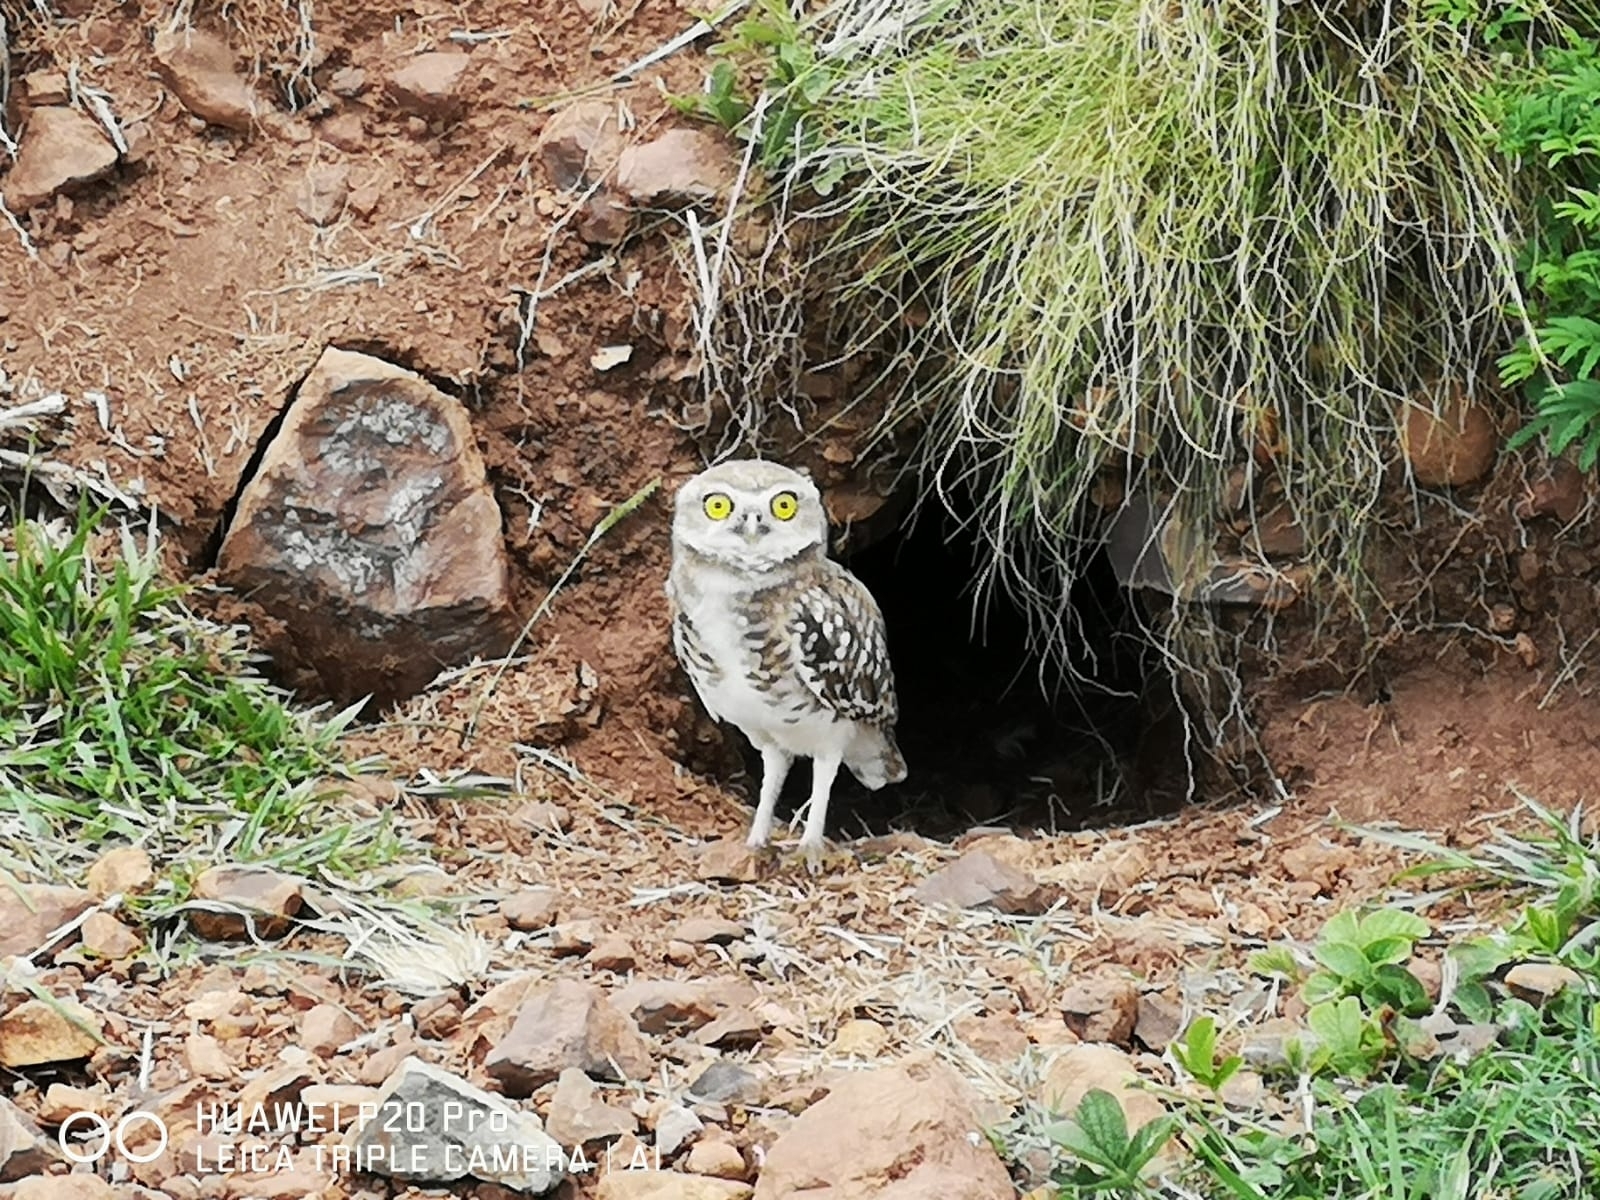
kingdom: Animalia
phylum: Chordata
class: Aves
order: Strigiformes
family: Strigidae
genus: Athene
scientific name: Athene cunicularia
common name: Burrowing owl
